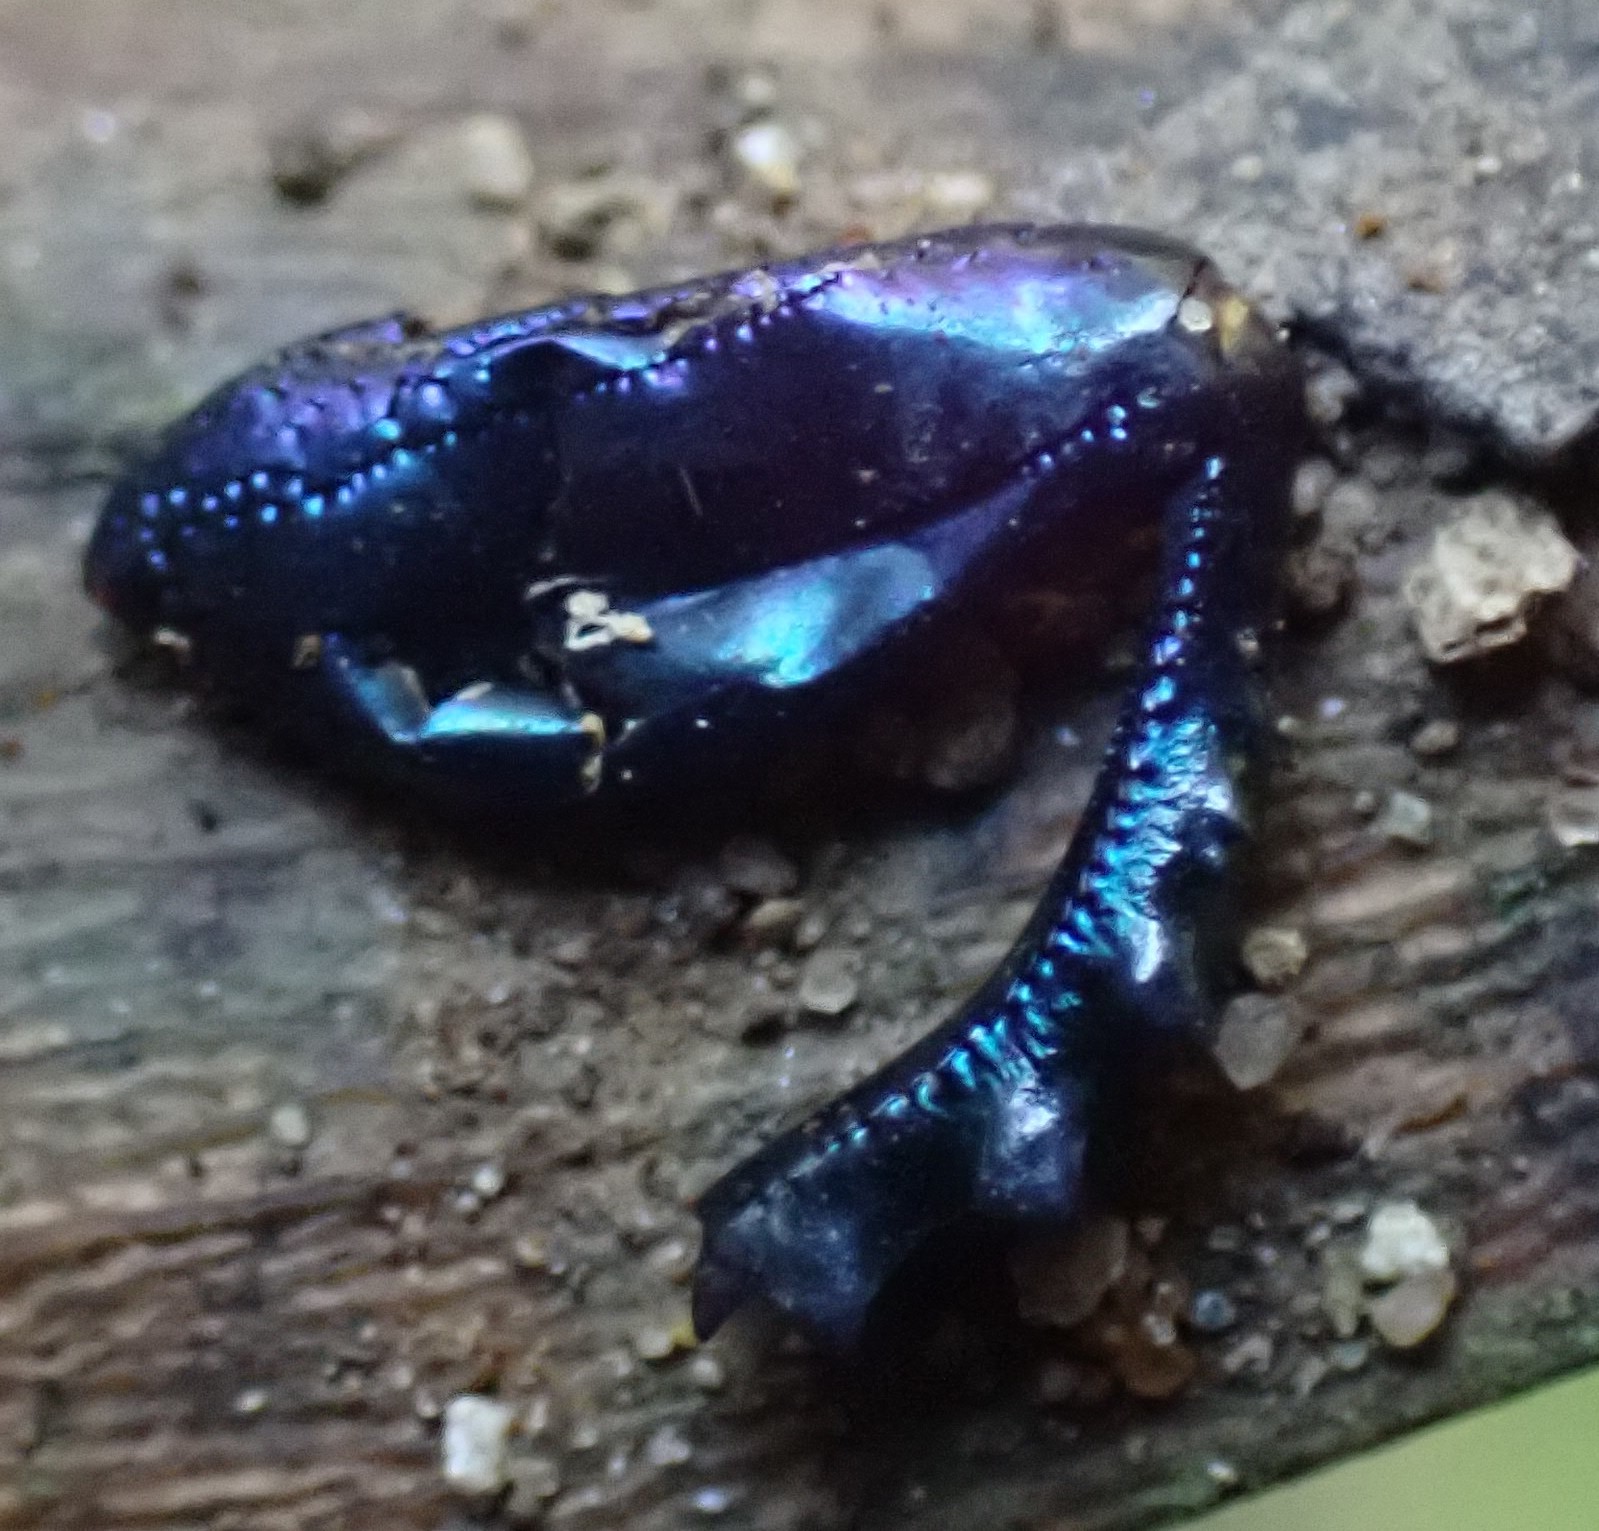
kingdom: Animalia
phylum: Arthropoda
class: Insecta
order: Coleoptera
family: Geotrupidae
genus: Geotrupes
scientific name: Geotrupes spiniger
